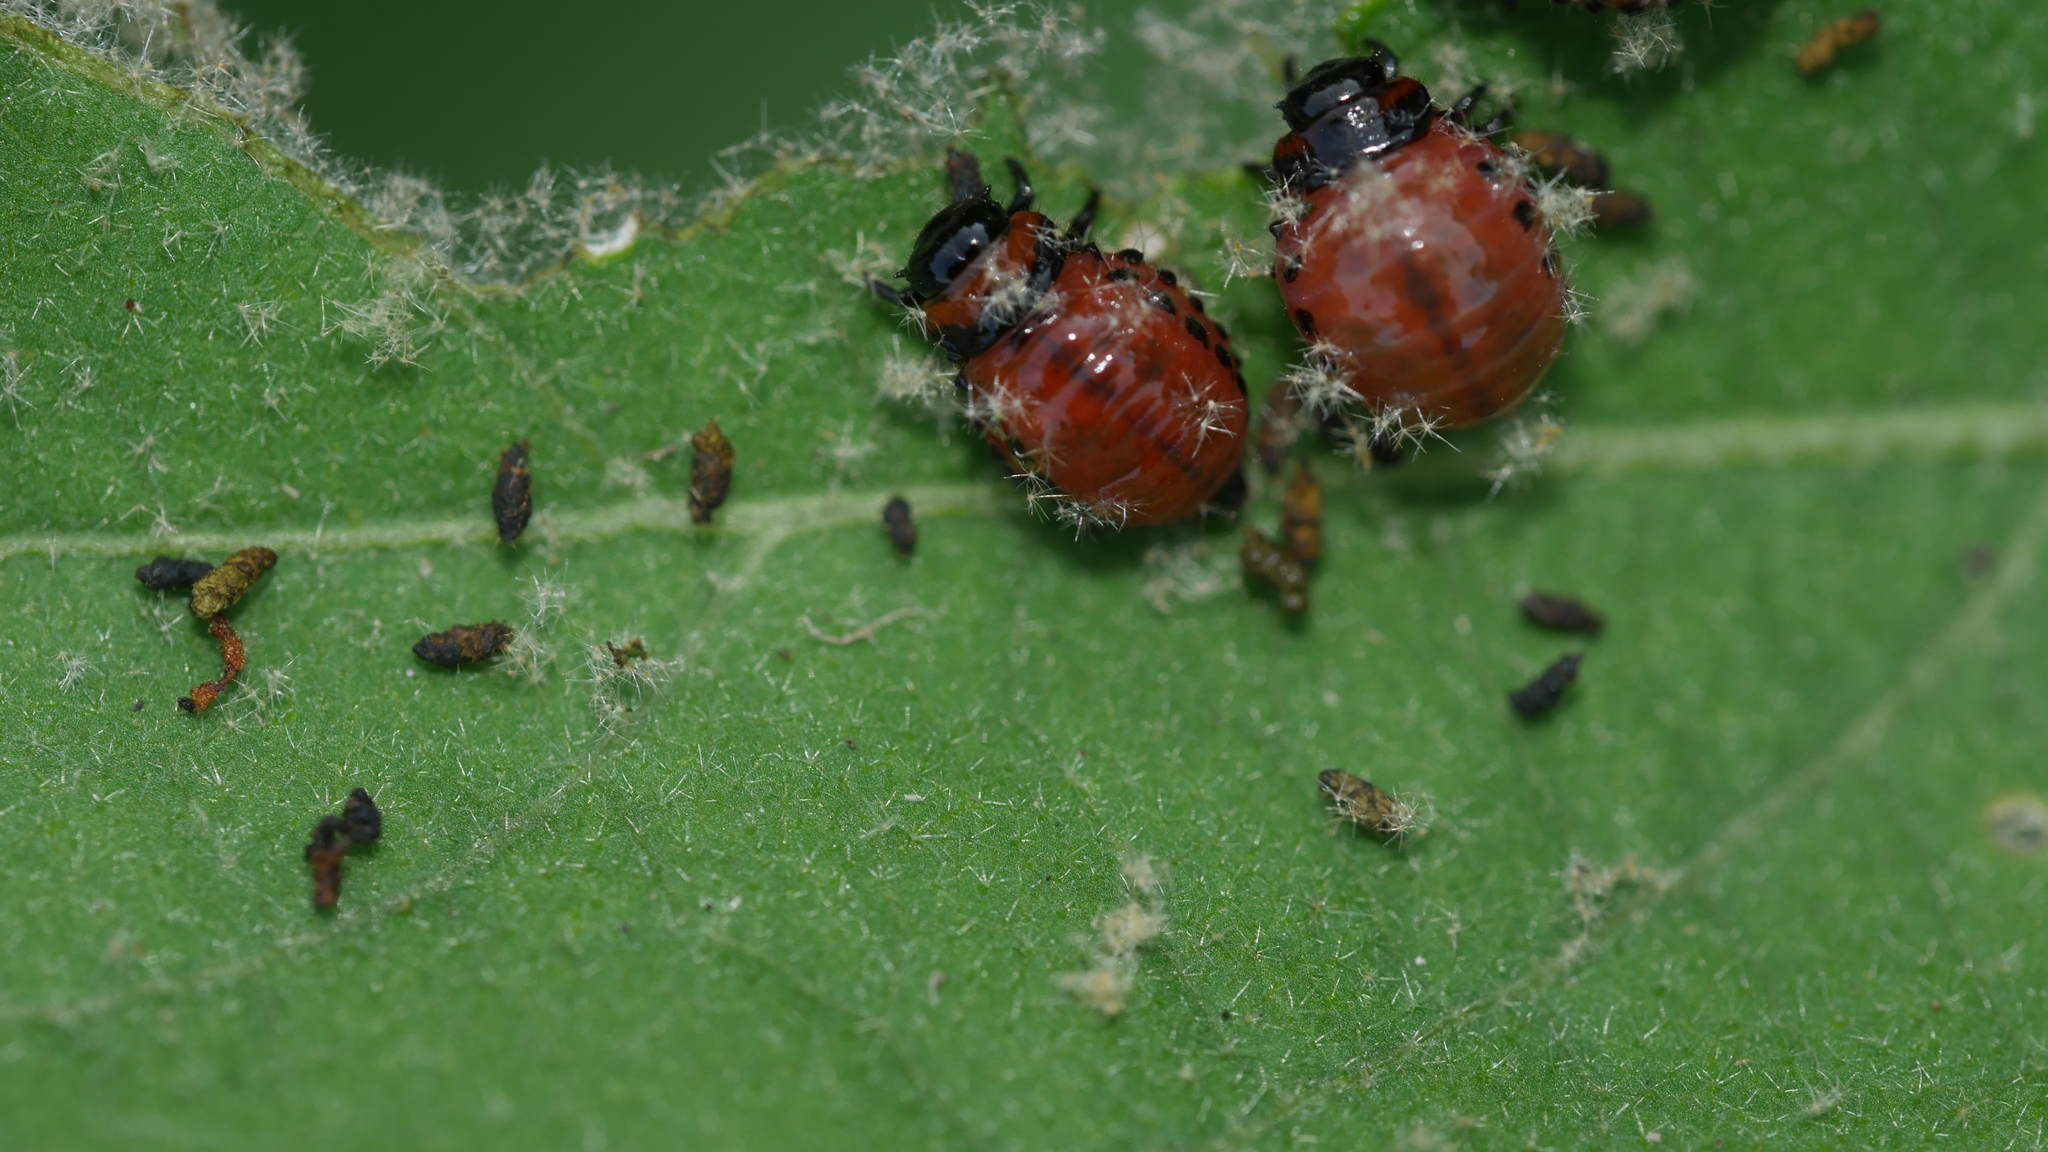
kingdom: Animalia
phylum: Arthropoda
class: Insecta
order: Coleoptera
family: Chrysomelidae
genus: Leptinotarsa
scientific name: Leptinotarsa decemlineata
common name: Colorado potato beetle
